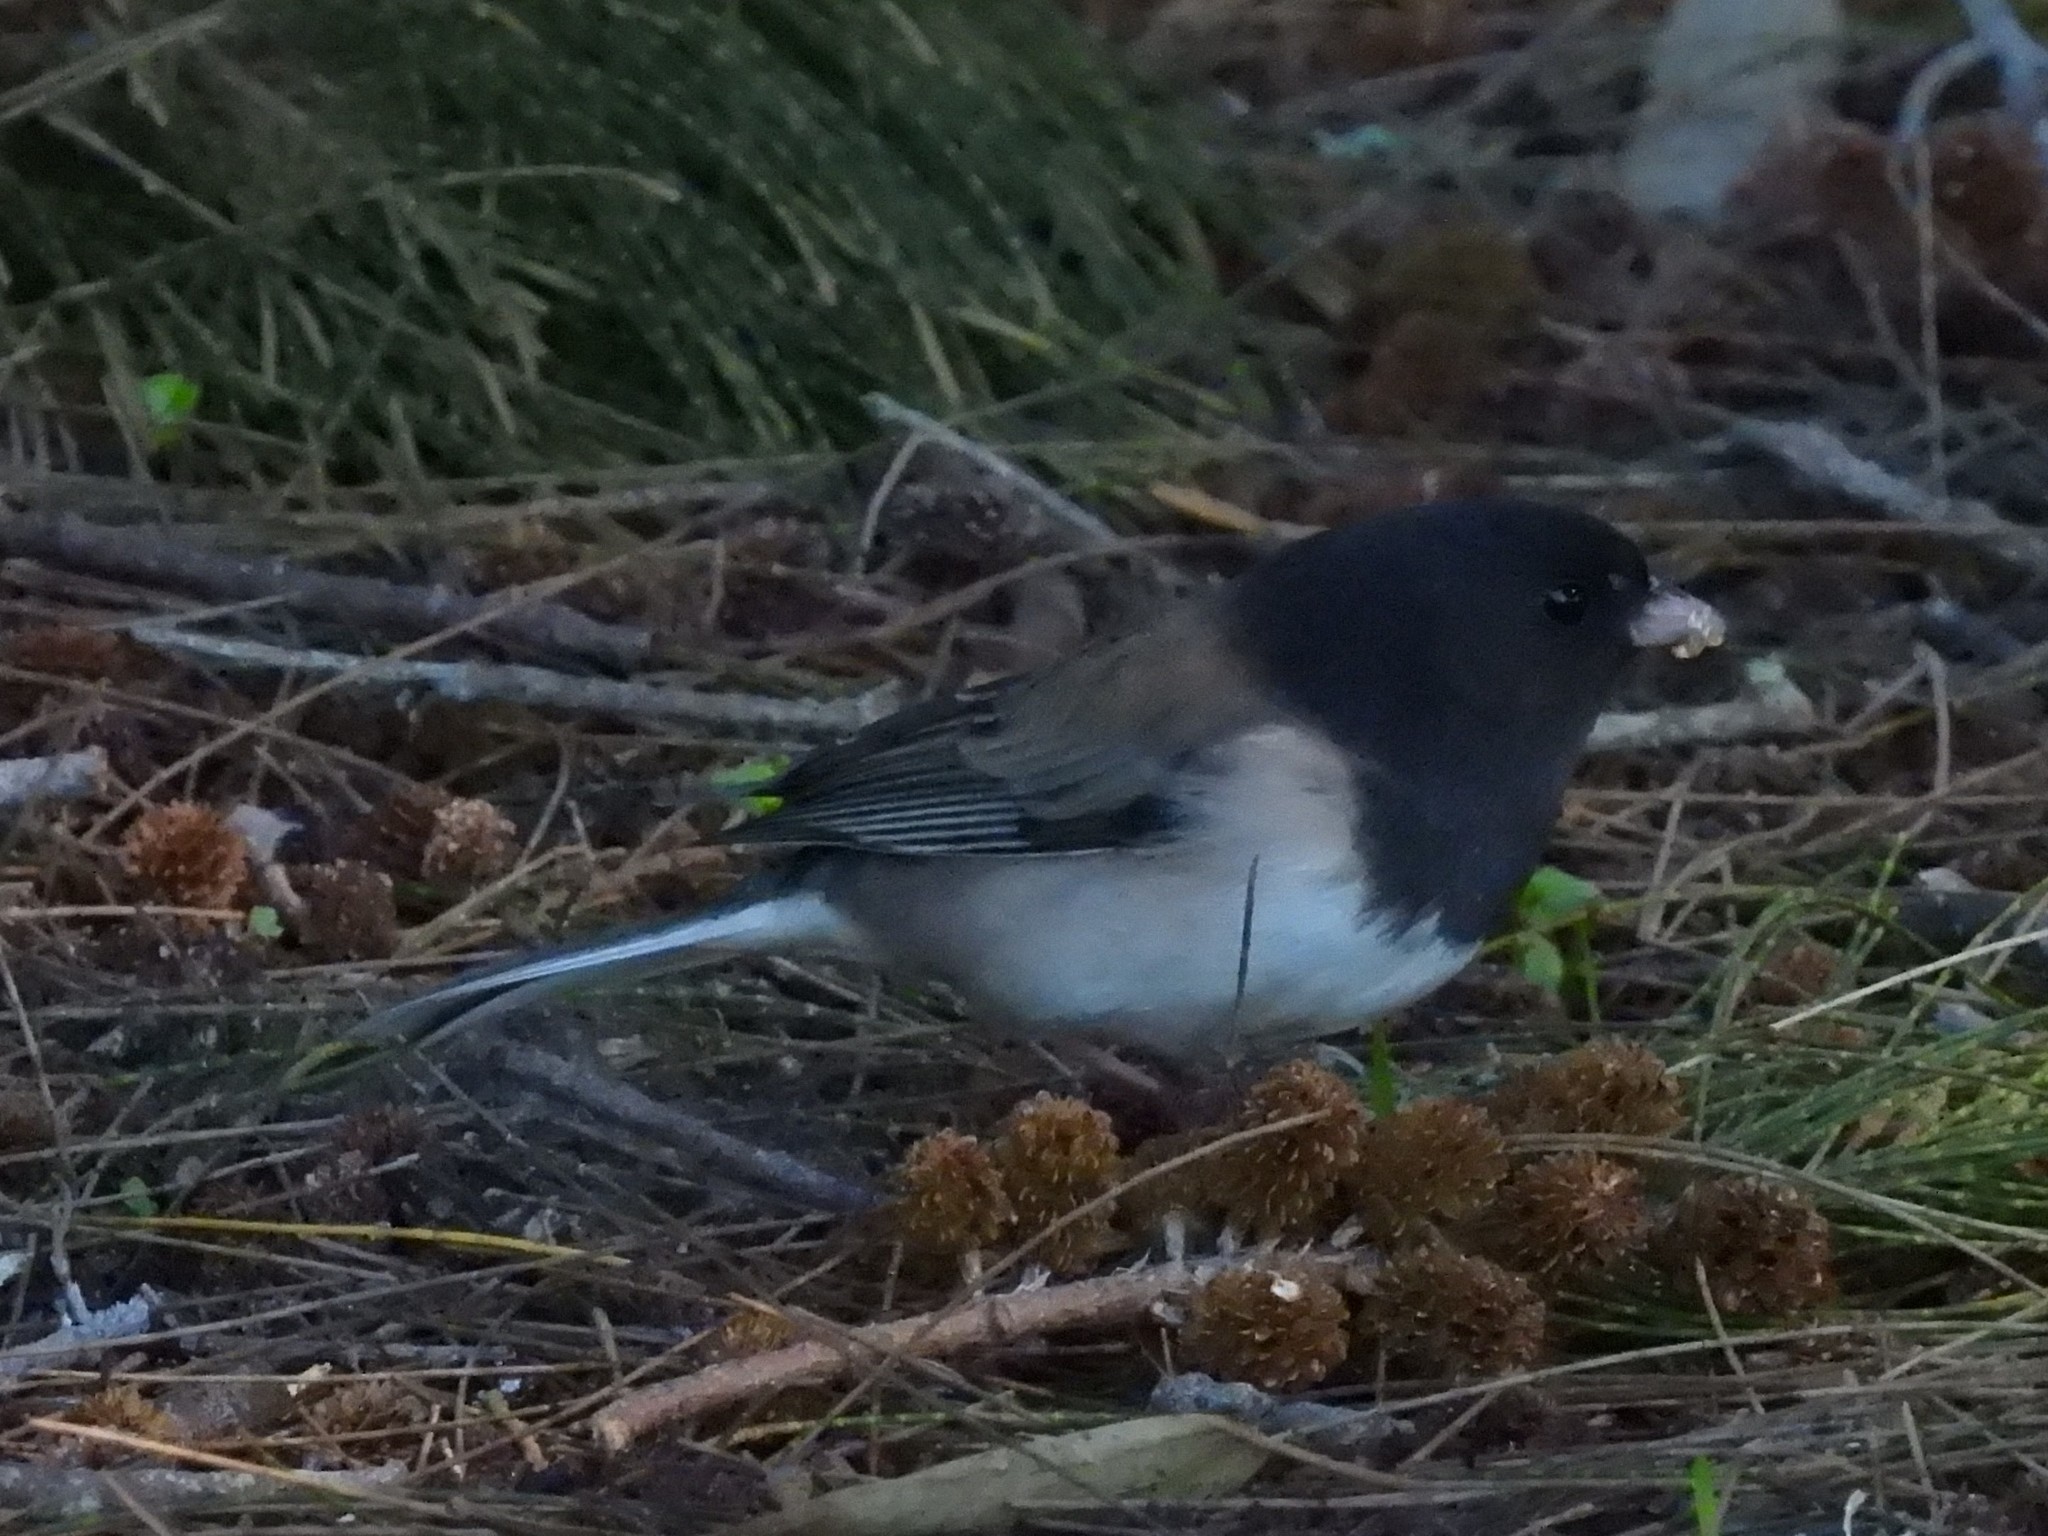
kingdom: Animalia
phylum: Chordata
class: Aves
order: Passeriformes
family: Passerellidae
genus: Junco
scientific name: Junco hyemalis
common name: Dark-eyed junco
